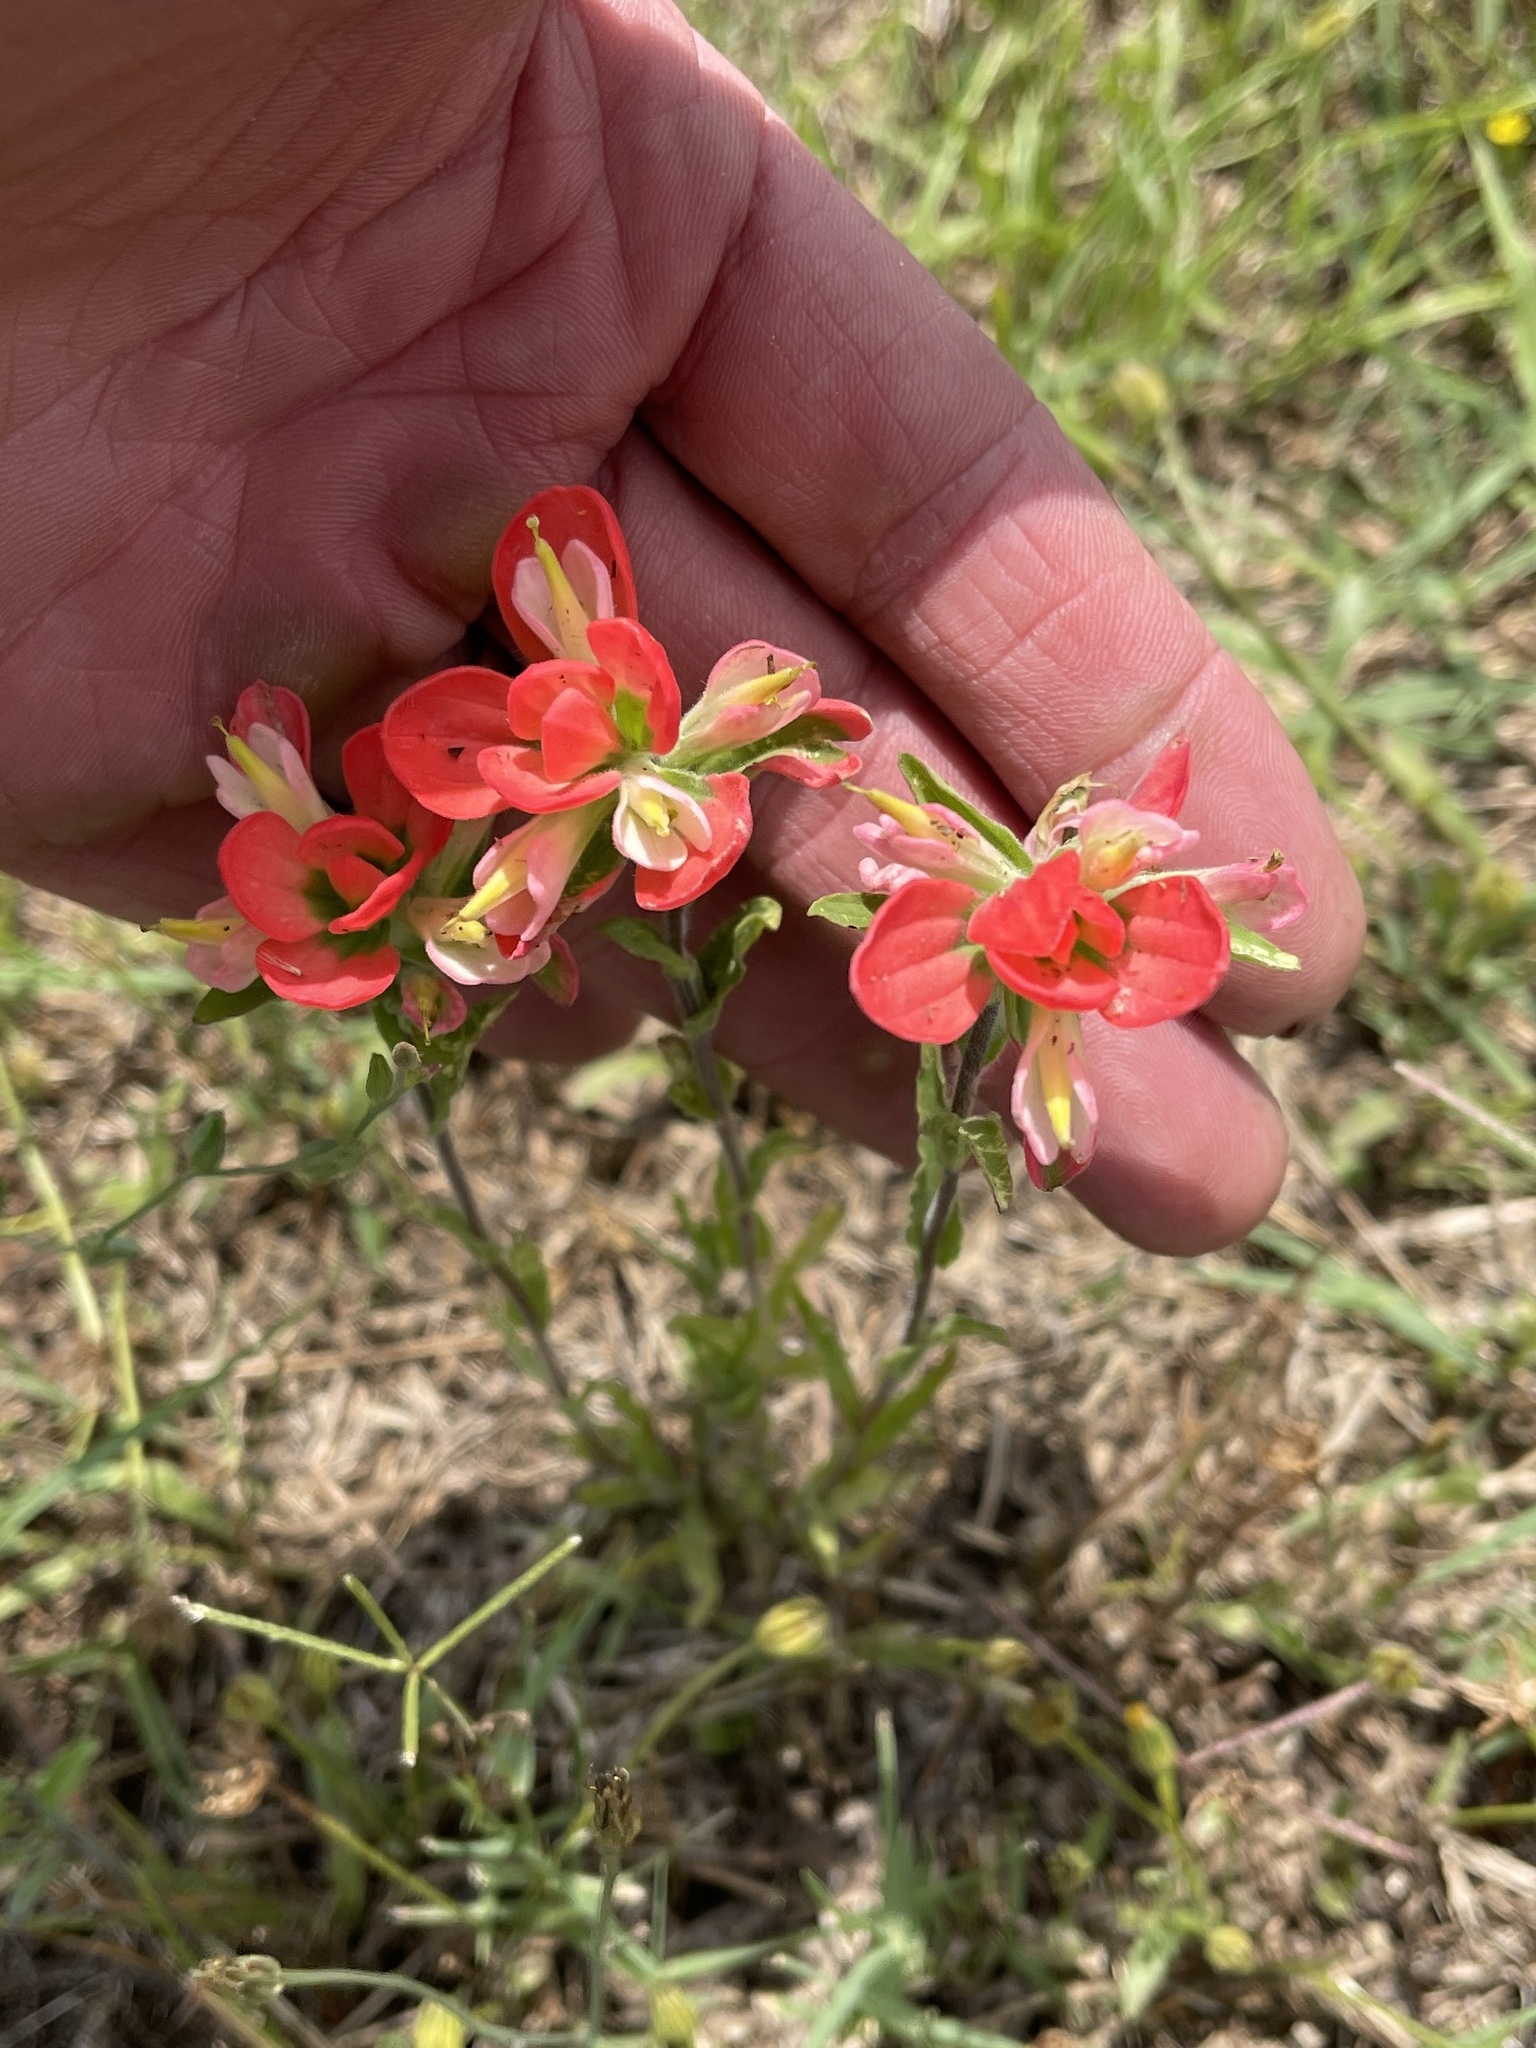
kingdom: Plantae
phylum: Tracheophyta
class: Magnoliopsida
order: Lamiales
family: Orobanchaceae
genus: Castilleja
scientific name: Castilleja indivisa
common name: Texas paintbrush
